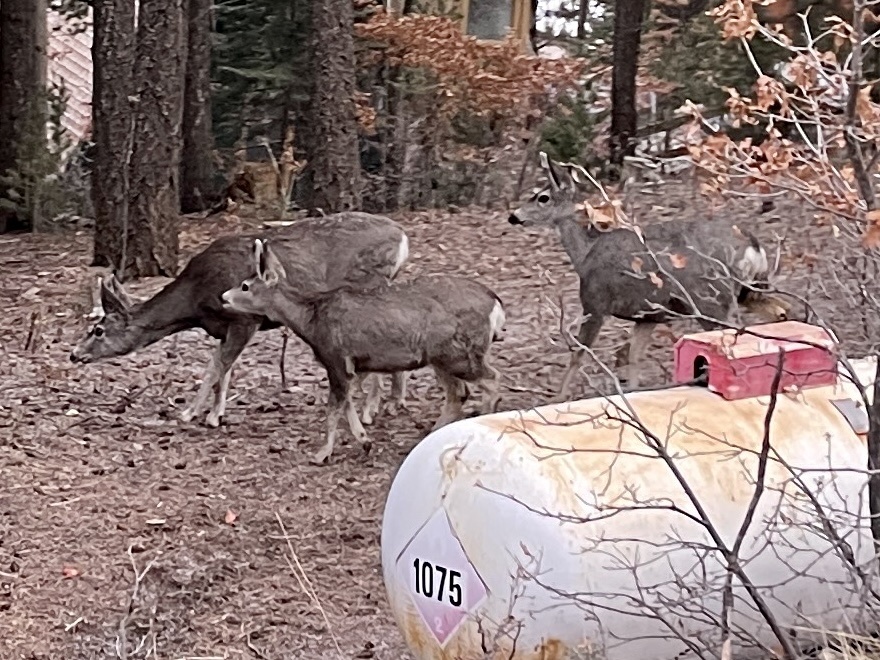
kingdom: Animalia
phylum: Chordata
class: Mammalia
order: Artiodactyla
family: Cervidae
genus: Odocoileus
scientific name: Odocoileus hemionus
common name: Mule deer
